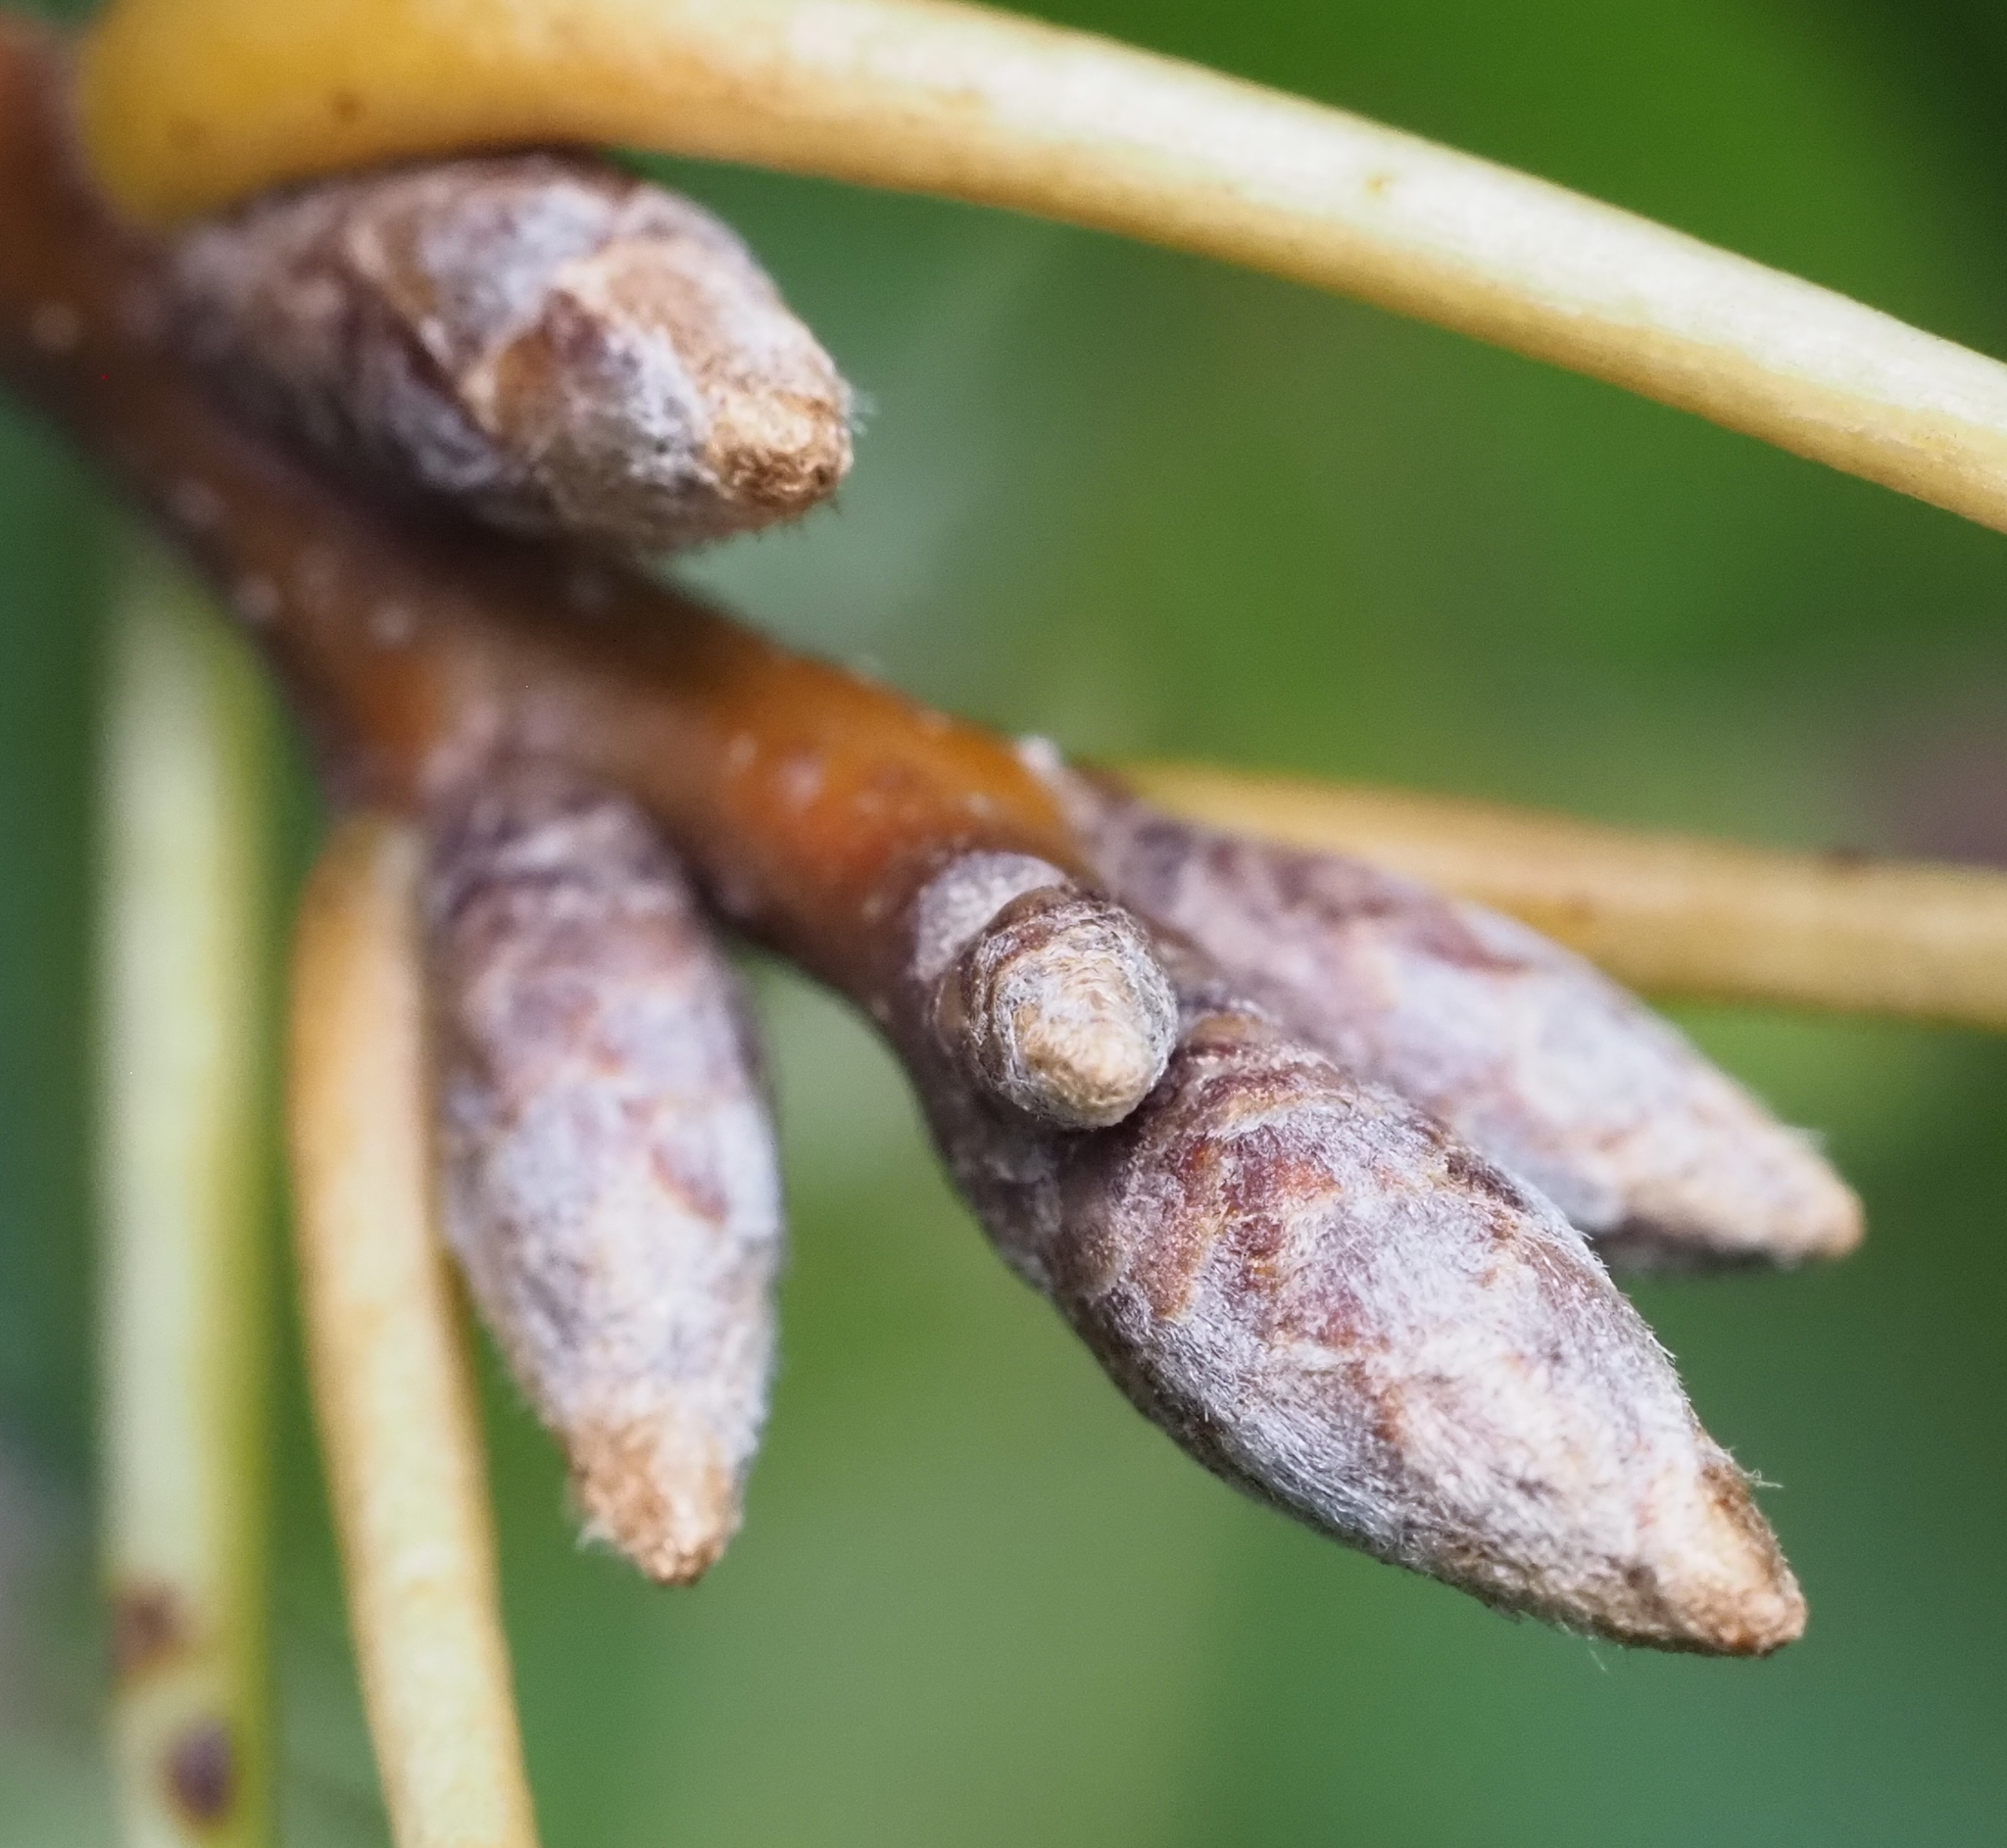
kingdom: Plantae
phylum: Tracheophyta
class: Magnoliopsida
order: Fagales
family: Fagaceae
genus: Quercus
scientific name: Quercus buckleyi
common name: Buckley oak
